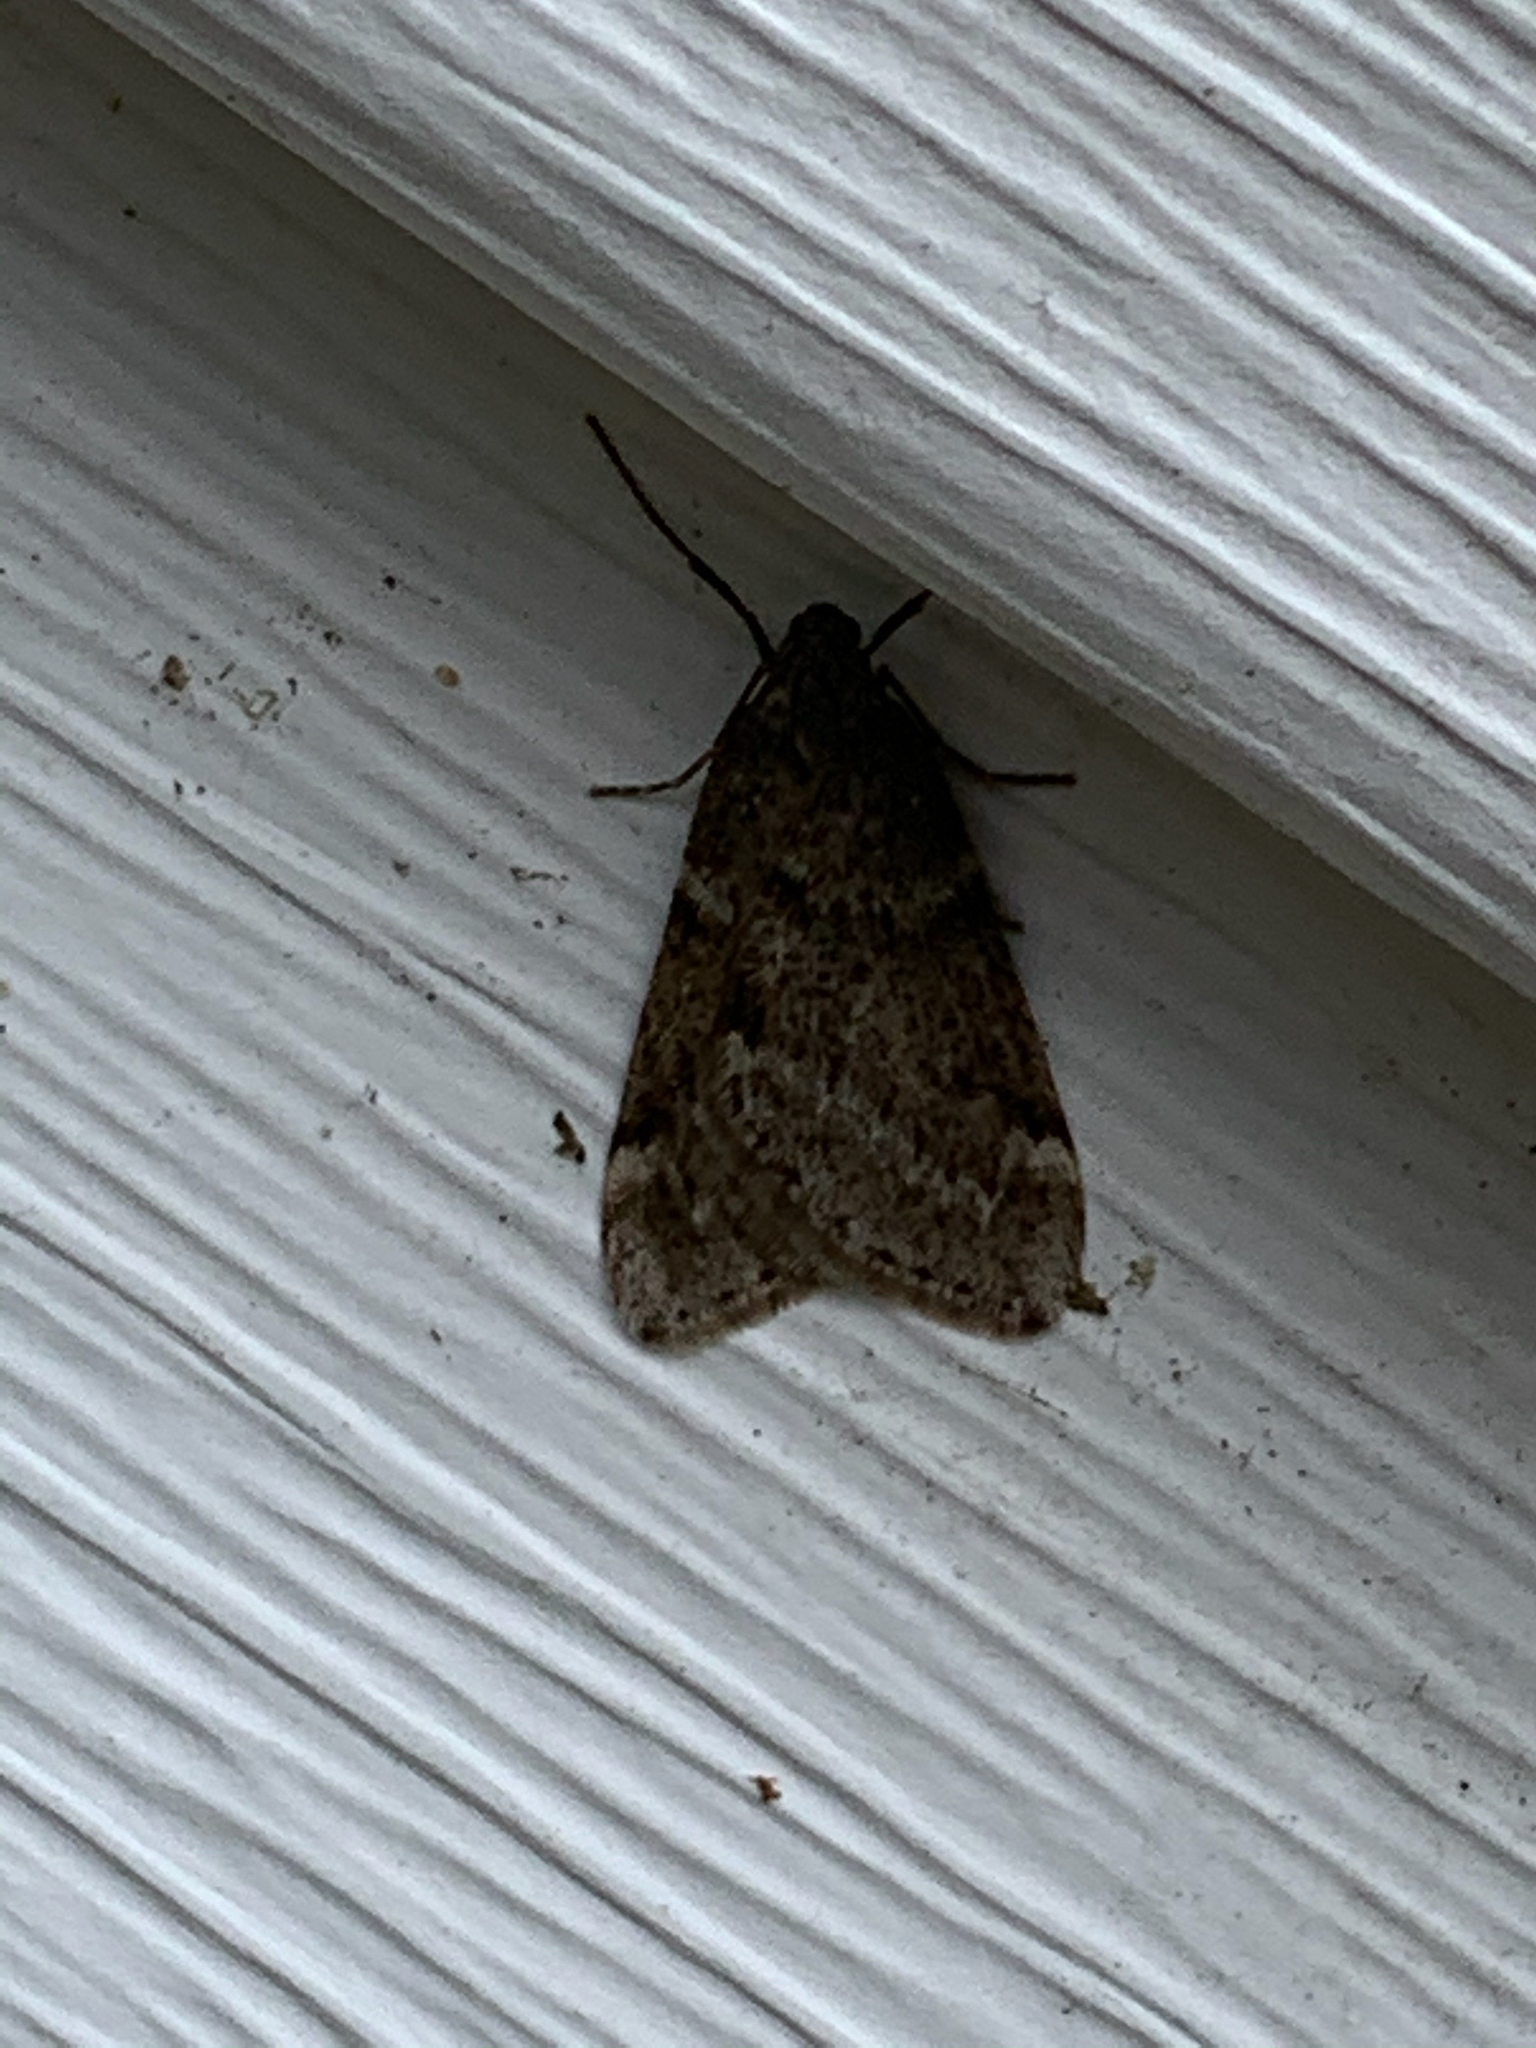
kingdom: Animalia
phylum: Arthropoda
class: Insecta
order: Lepidoptera
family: Geometridae
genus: Alsophila
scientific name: Alsophila pometaria
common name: Fall cankerworm
